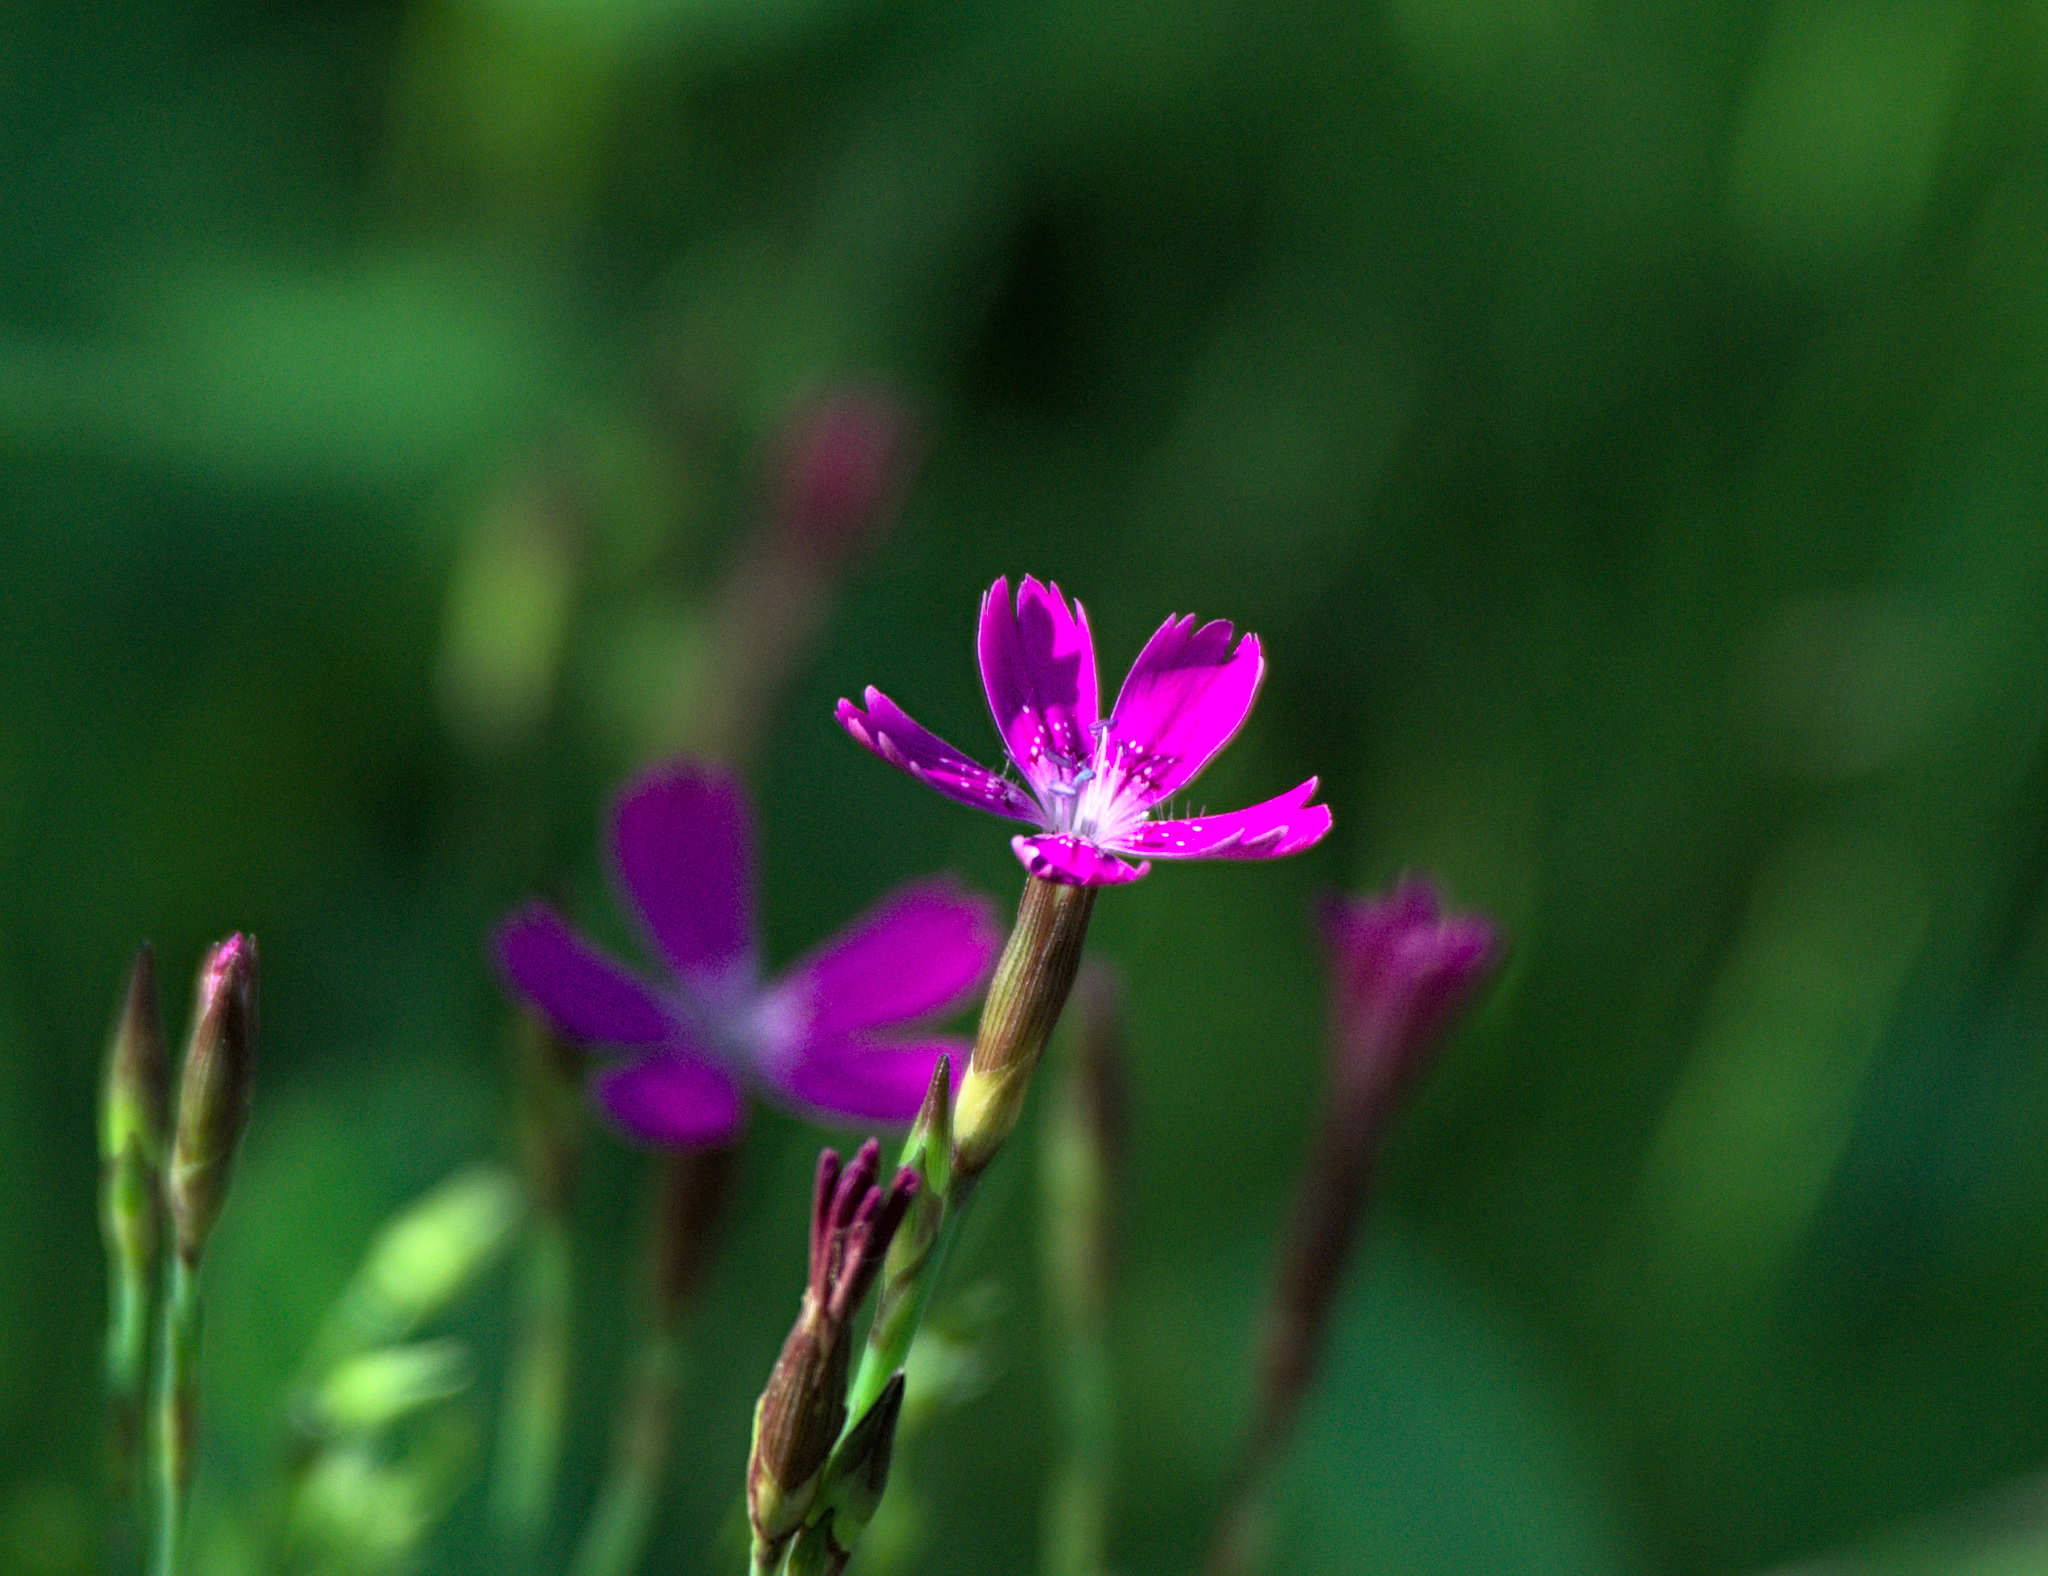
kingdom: Plantae
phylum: Tracheophyta
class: Magnoliopsida
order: Caryophyllales
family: Caryophyllaceae
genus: Dianthus
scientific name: Dianthus deltoides
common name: Maiden pink
